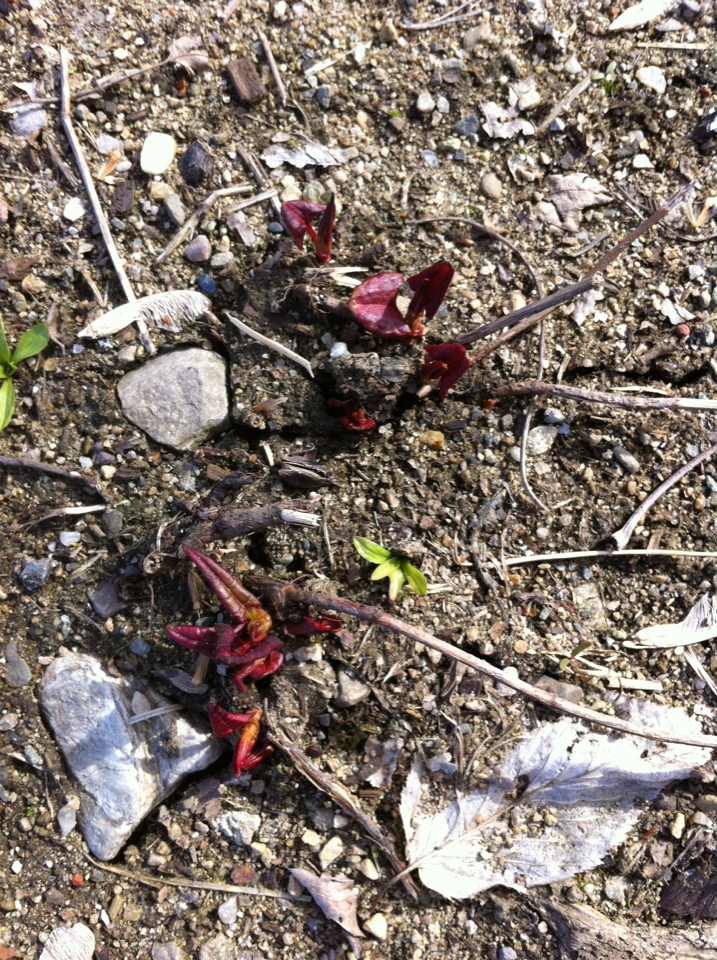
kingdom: Plantae
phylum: Tracheophyta
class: Magnoliopsida
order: Caryophyllales
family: Polygonaceae
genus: Reynoutria
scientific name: Reynoutria japonica
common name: Japanese knotweed
